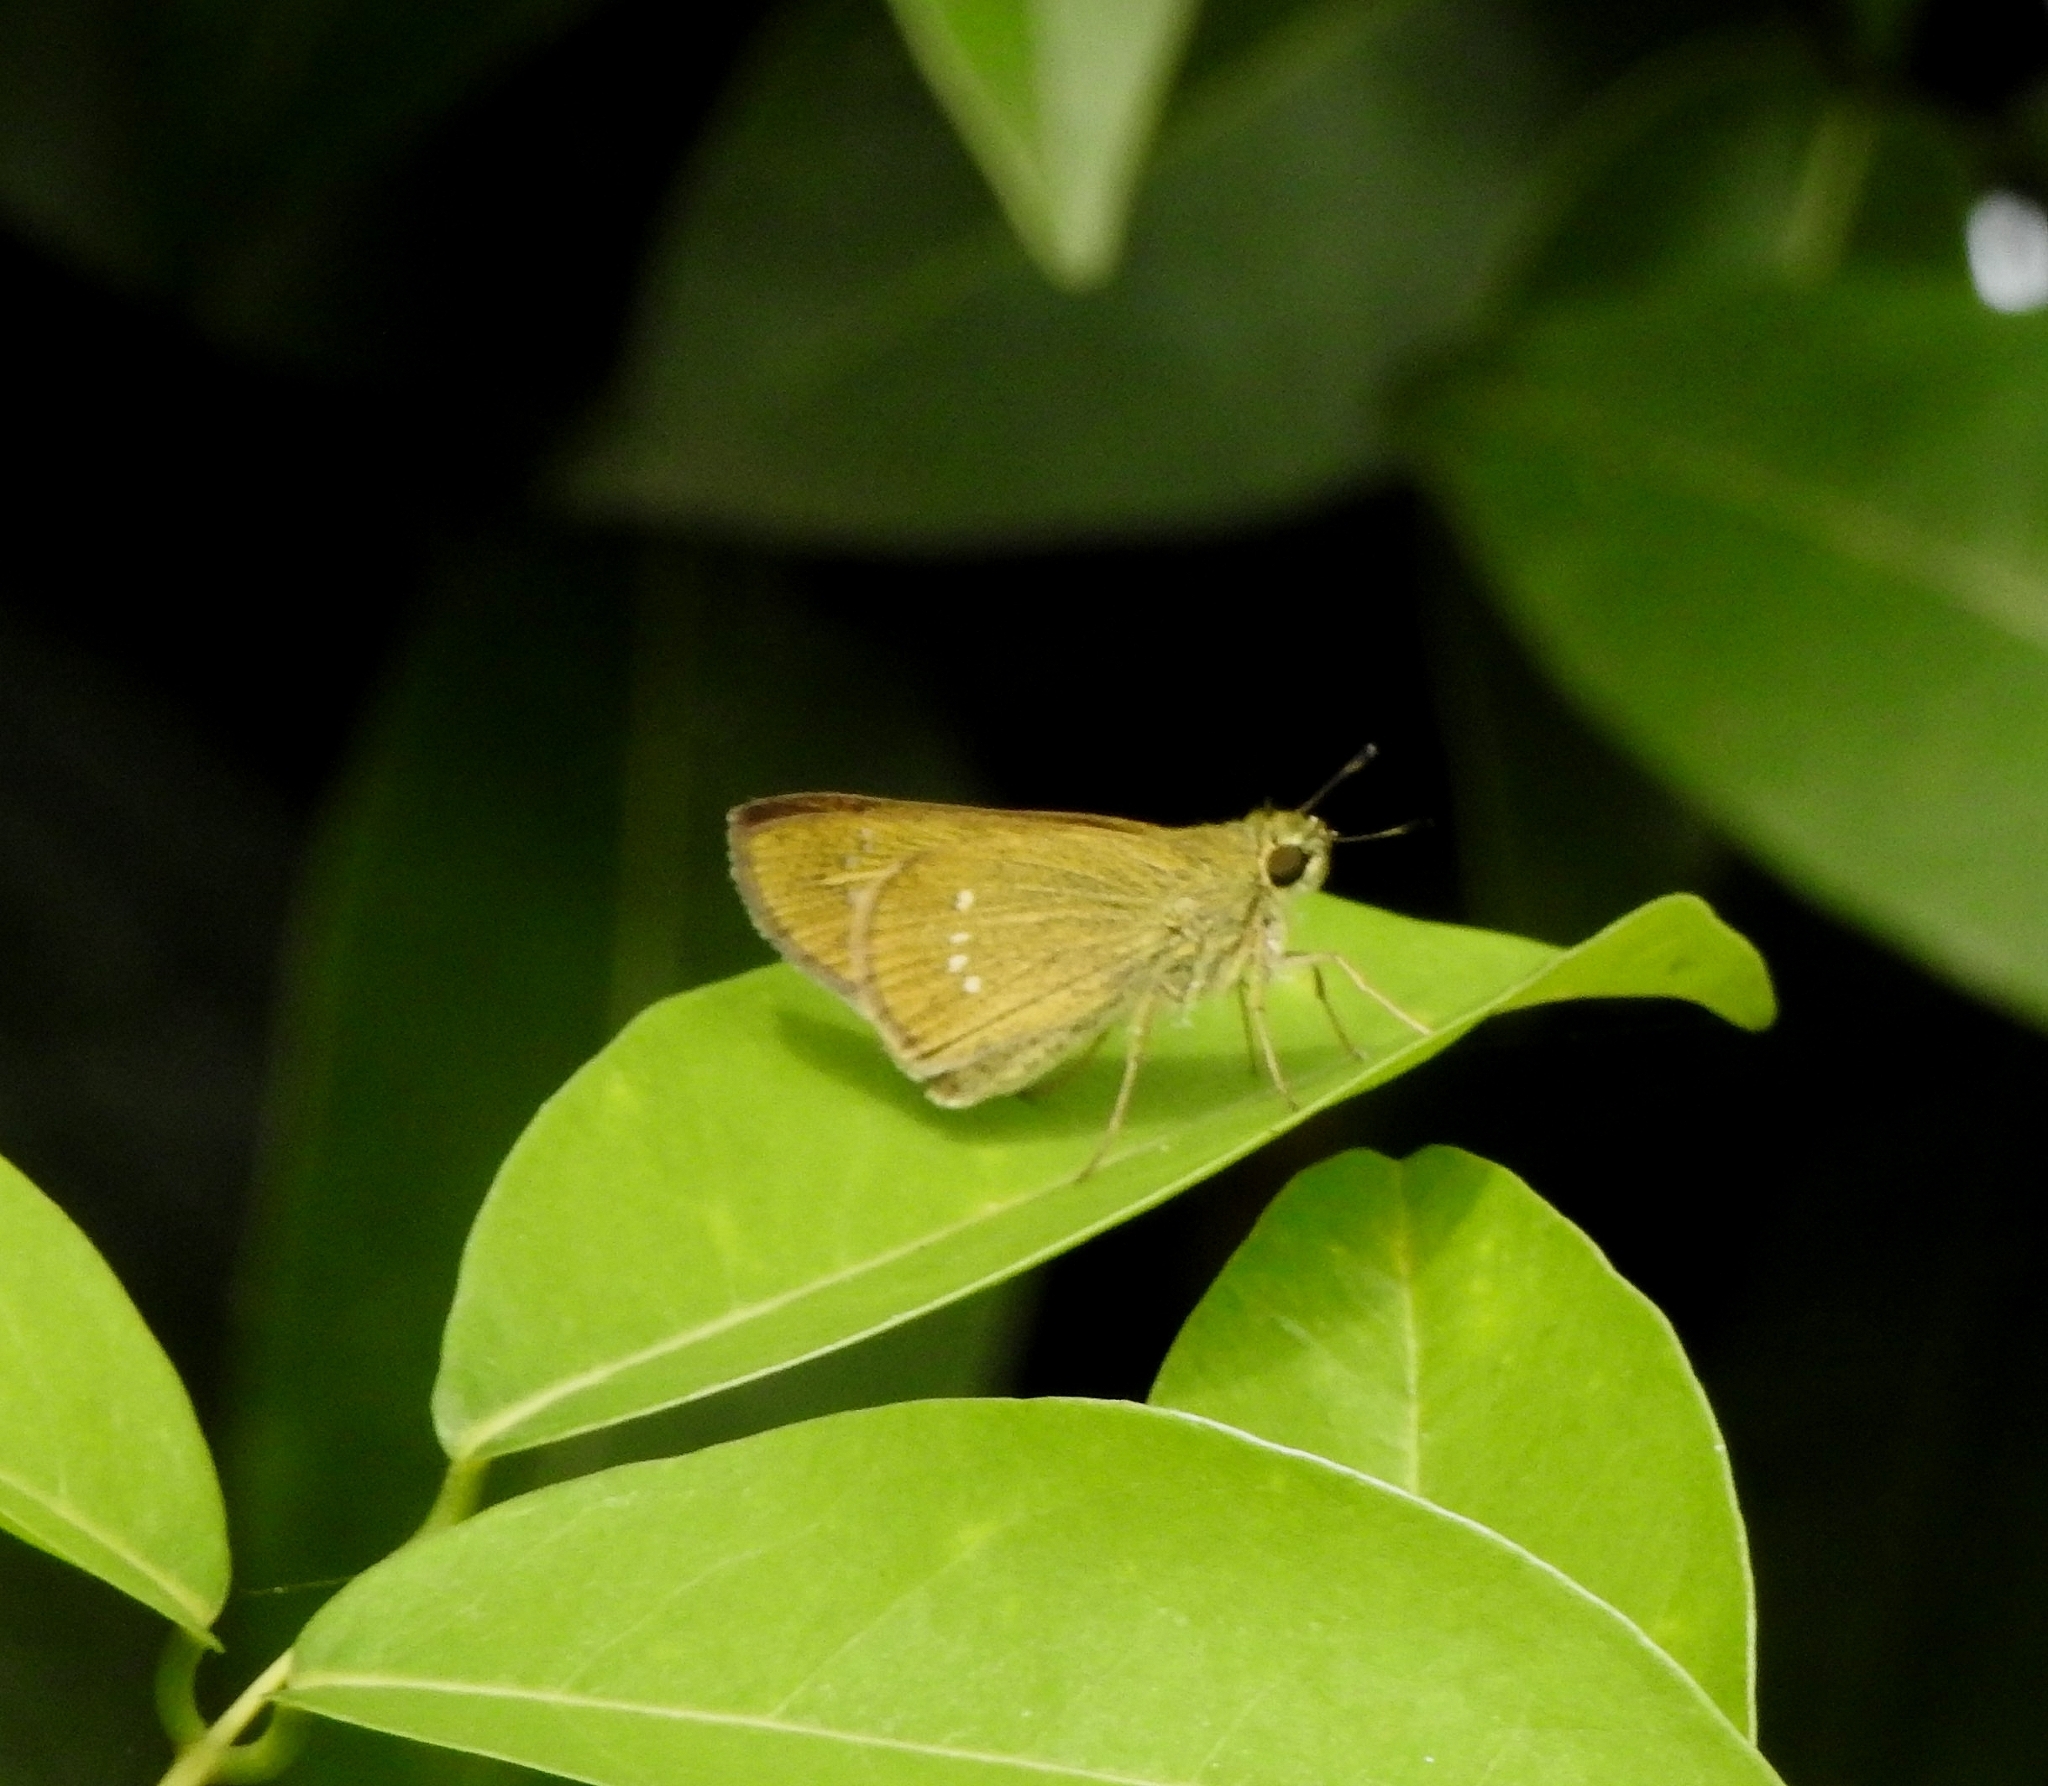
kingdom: Animalia
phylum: Arthropoda
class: Insecta
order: Lepidoptera
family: Hesperiidae
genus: Borbo
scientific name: Borbo cinnara
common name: Formosan swift
